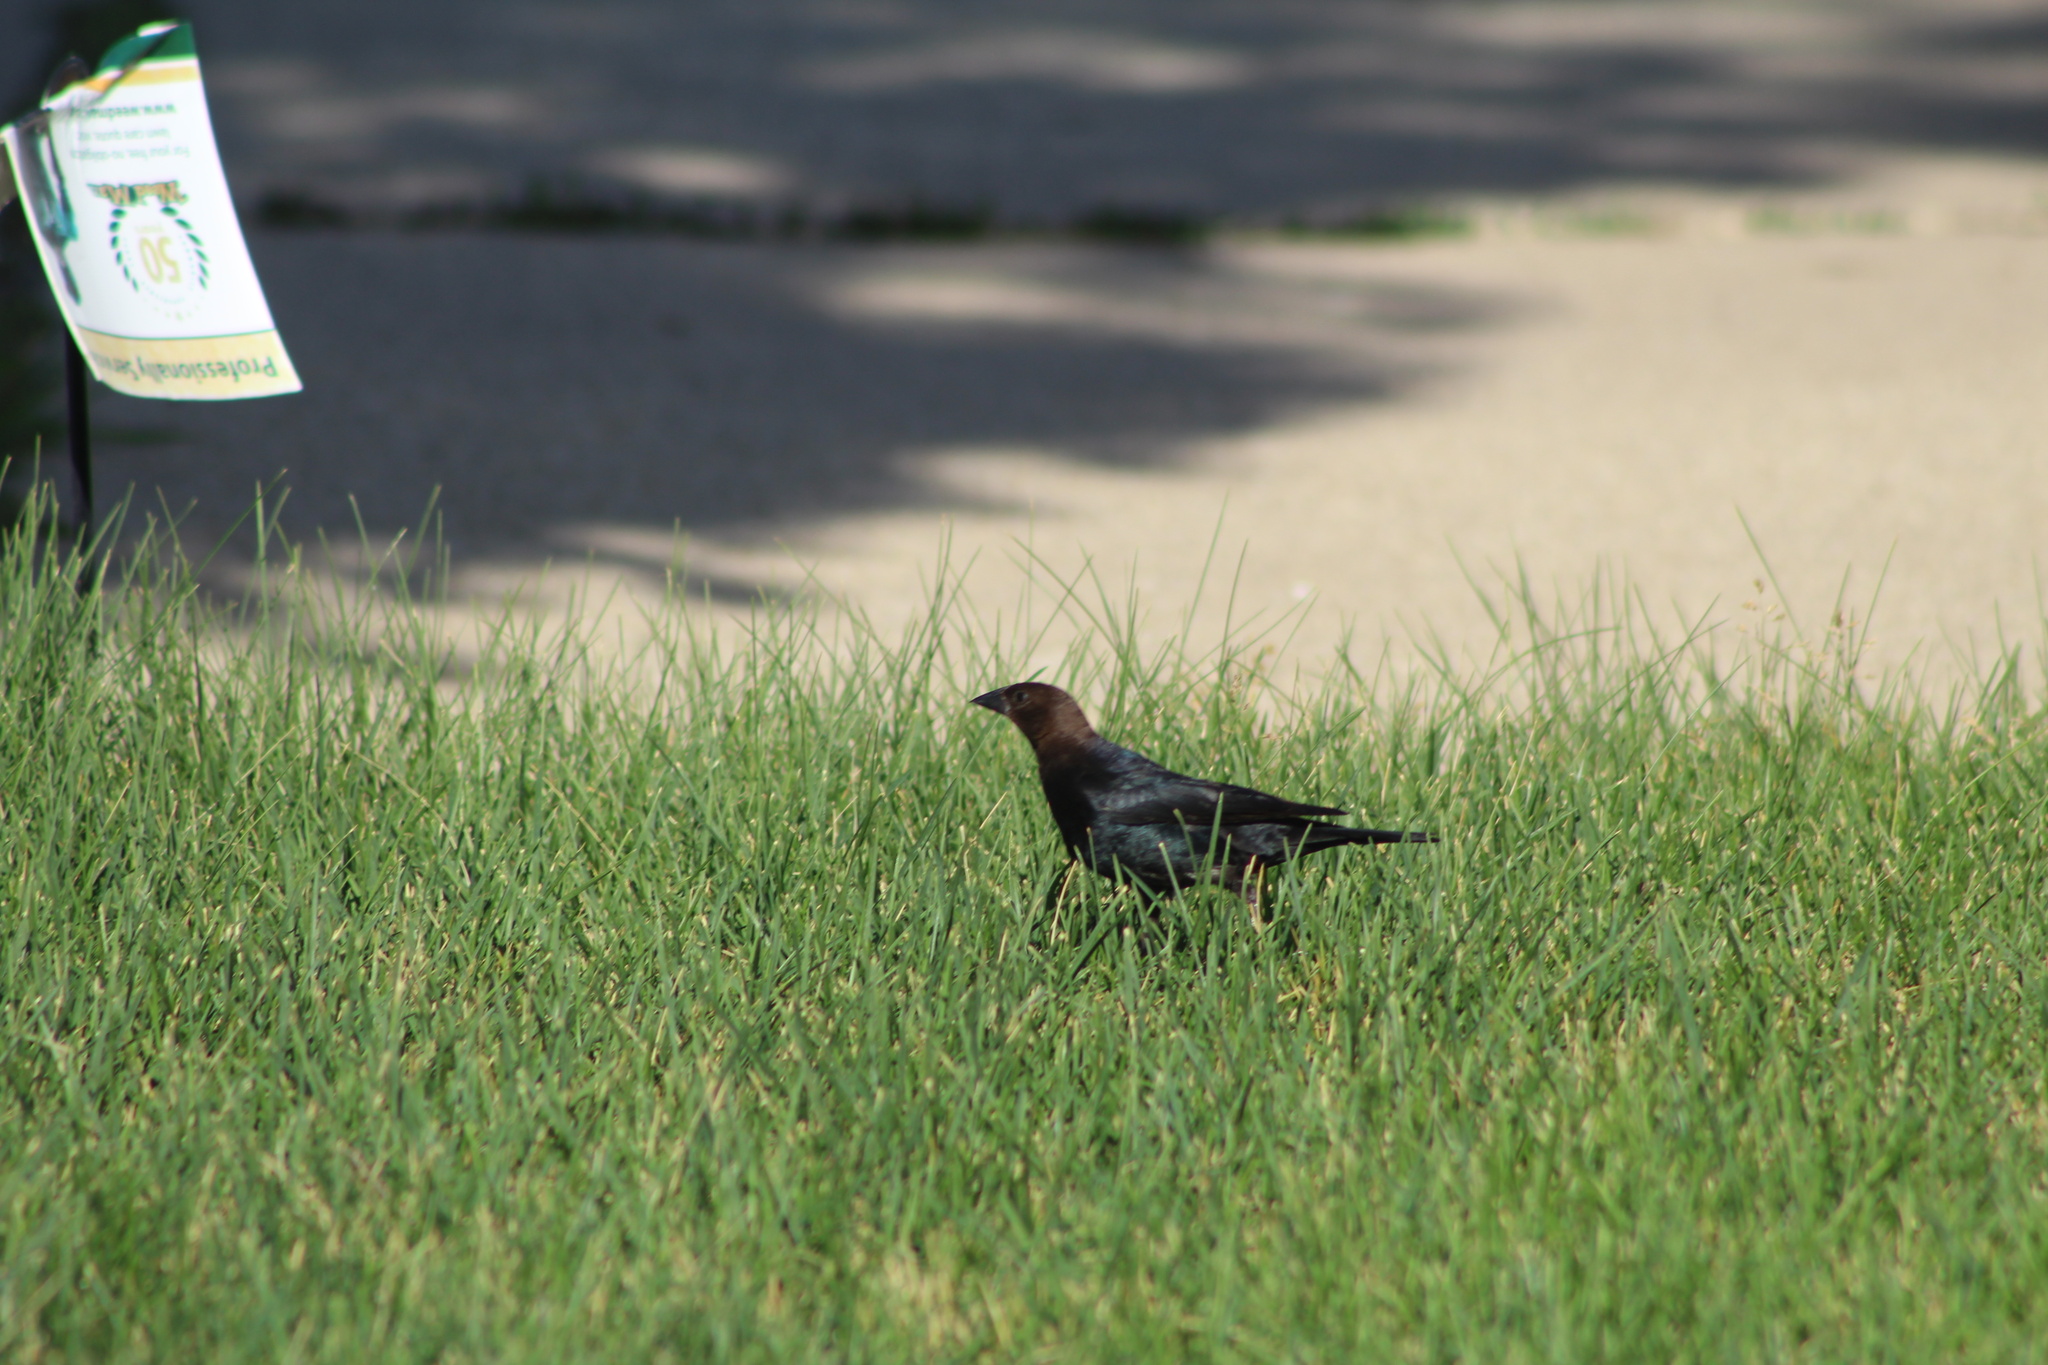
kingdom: Animalia
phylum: Chordata
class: Aves
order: Passeriformes
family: Icteridae
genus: Molothrus
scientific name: Molothrus ater
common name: Brown-headed cowbird
